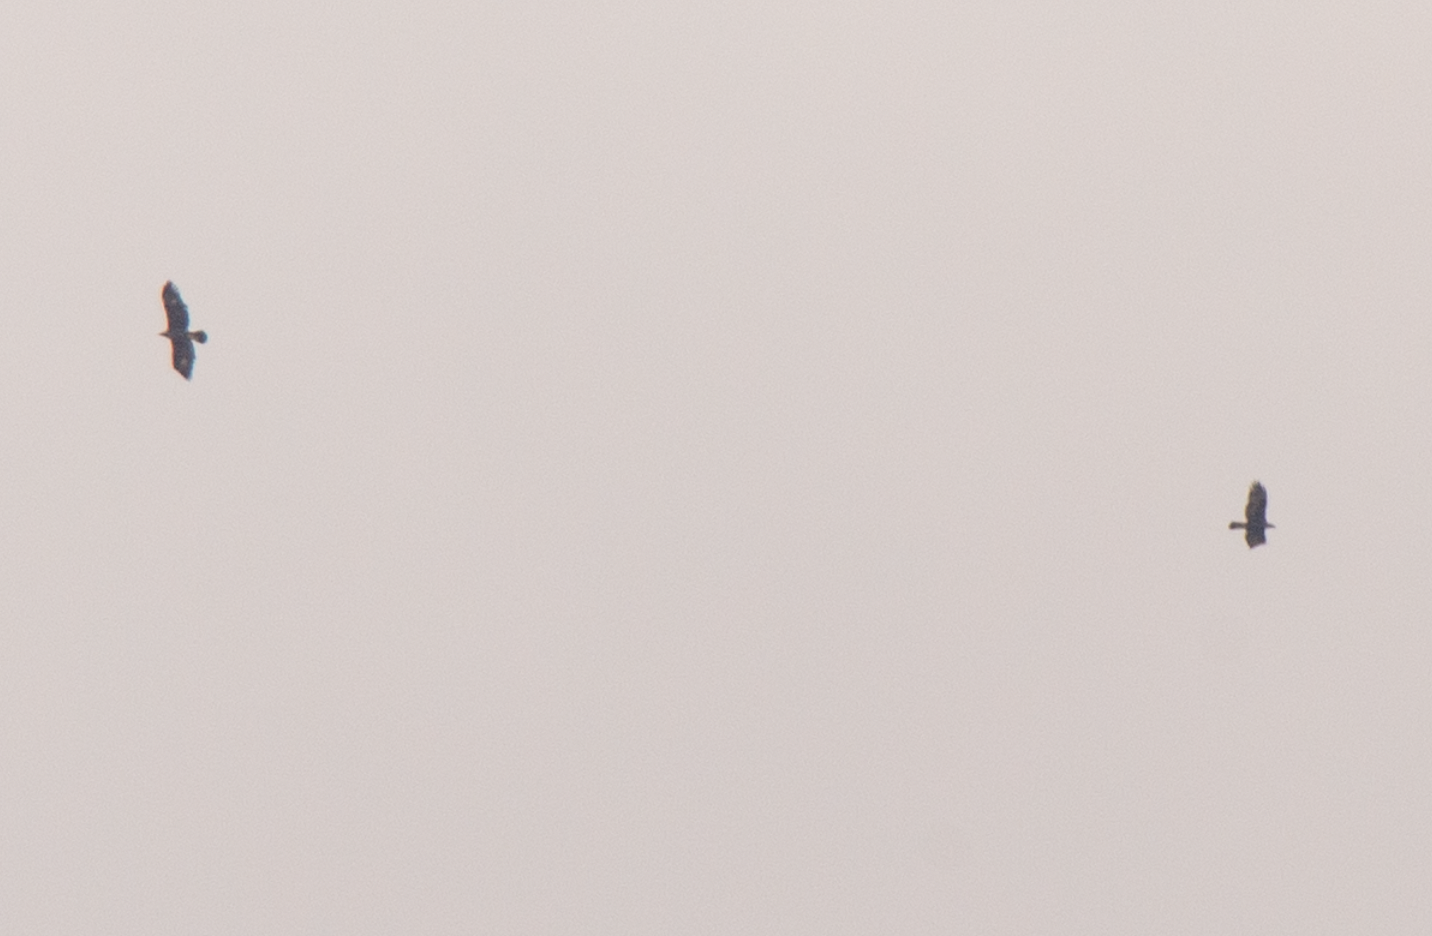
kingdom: Animalia
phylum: Chordata
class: Aves
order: Accipitriformes
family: Accipitridae
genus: Aquila
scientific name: Aquila chrysaetos
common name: Golden eagle
